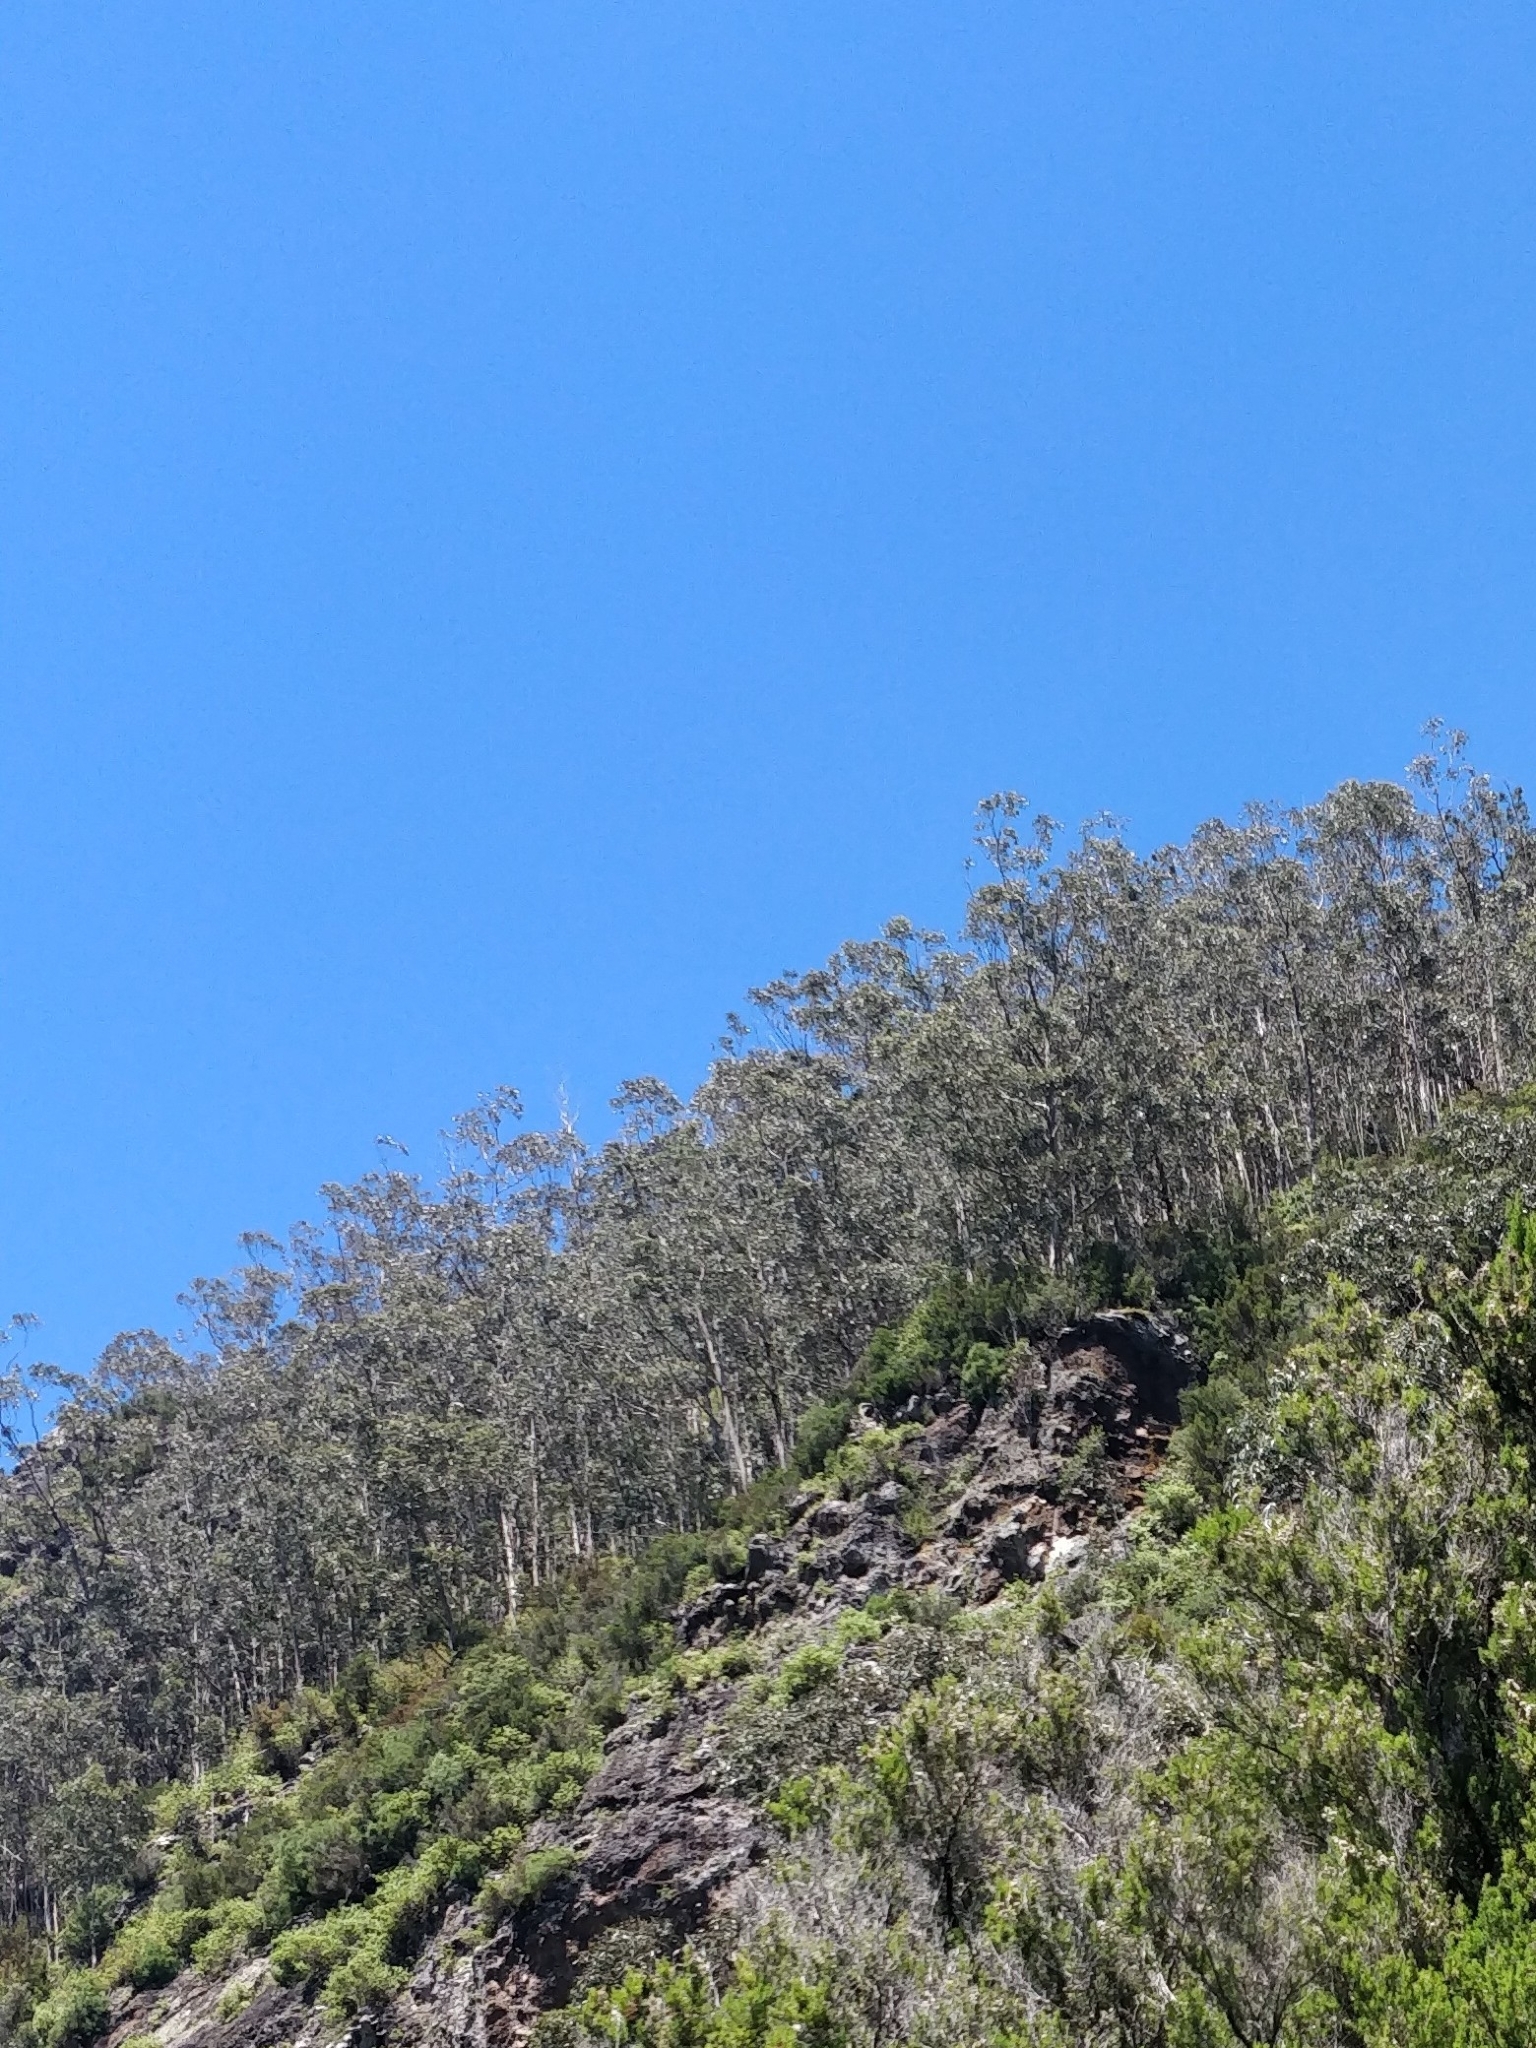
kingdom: Plantae
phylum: Tracheophyta
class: Magnoliopsida
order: Myrtales
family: Myrtaceae
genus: Eucalyptus
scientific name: Eucalyptus globulus
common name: Southern blue-gum
